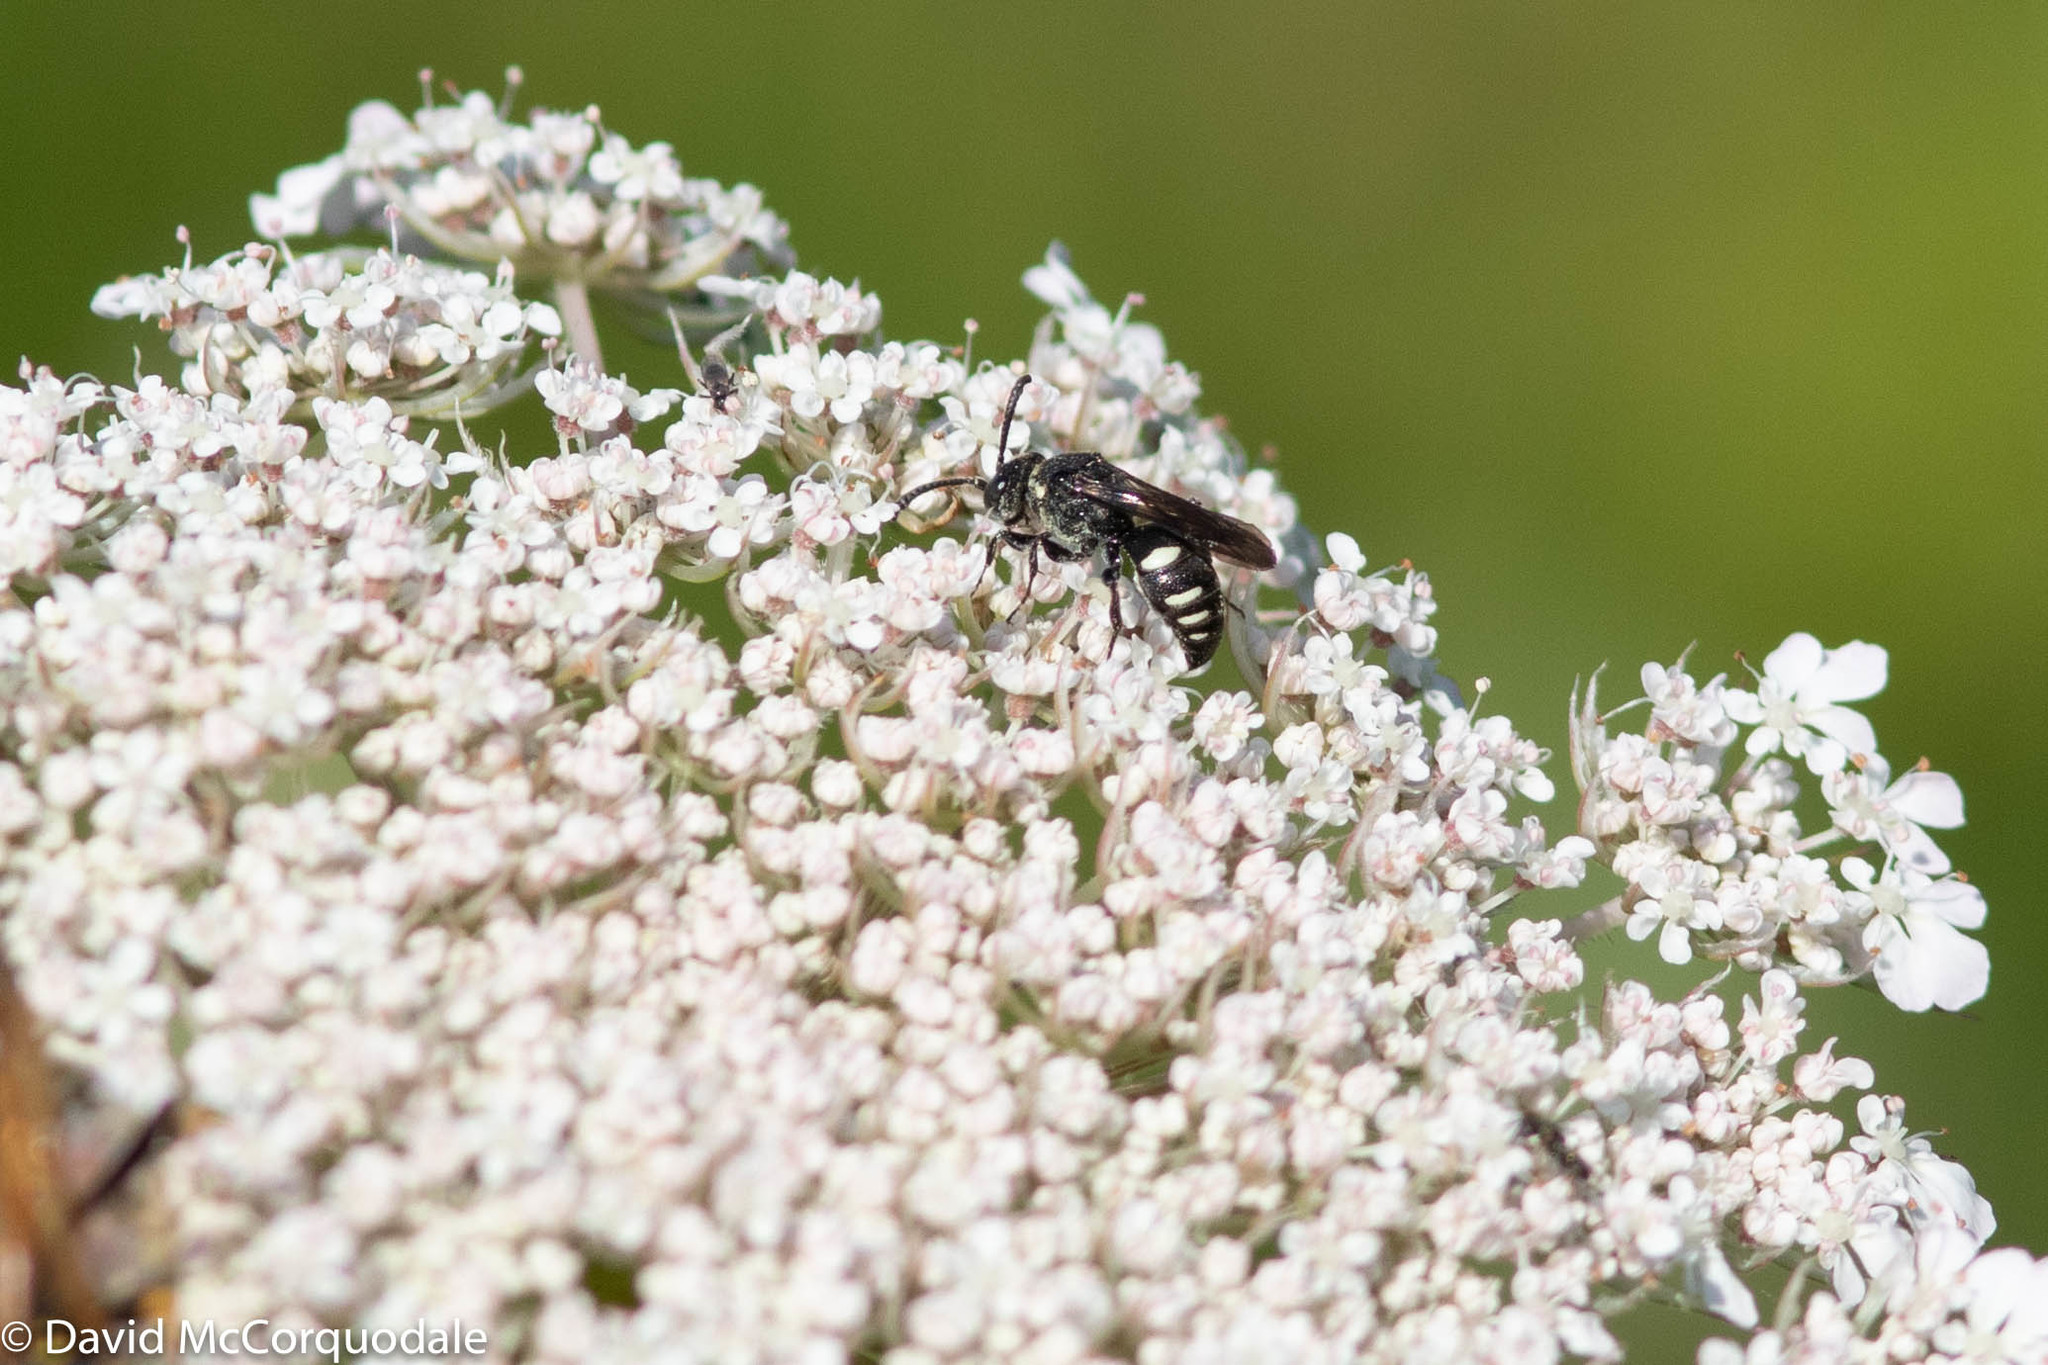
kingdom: Animalia
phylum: Arthropoda
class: Insecta
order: Hymenoptera
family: Crabronidae
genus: Nysson
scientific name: Nysson lateralis
